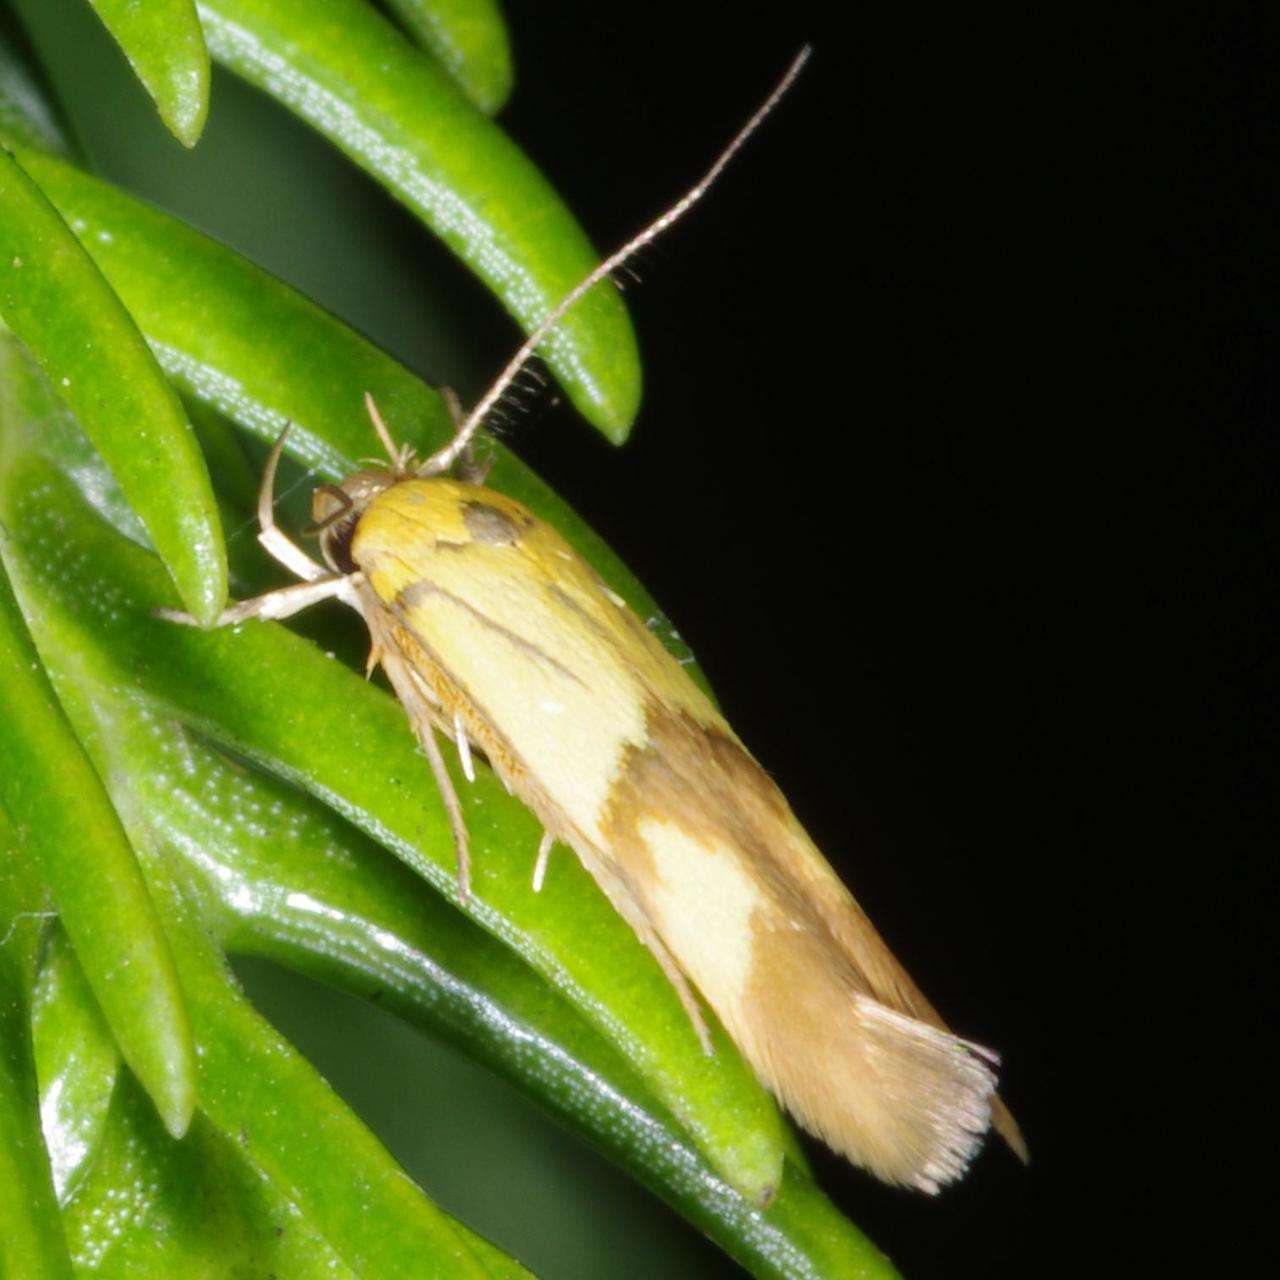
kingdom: Animalia
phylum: Arthropoda
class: Insecta
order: Lepidoptera
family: Stathmopodidae
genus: Stathmopoda
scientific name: Stathmopoda auriferella
